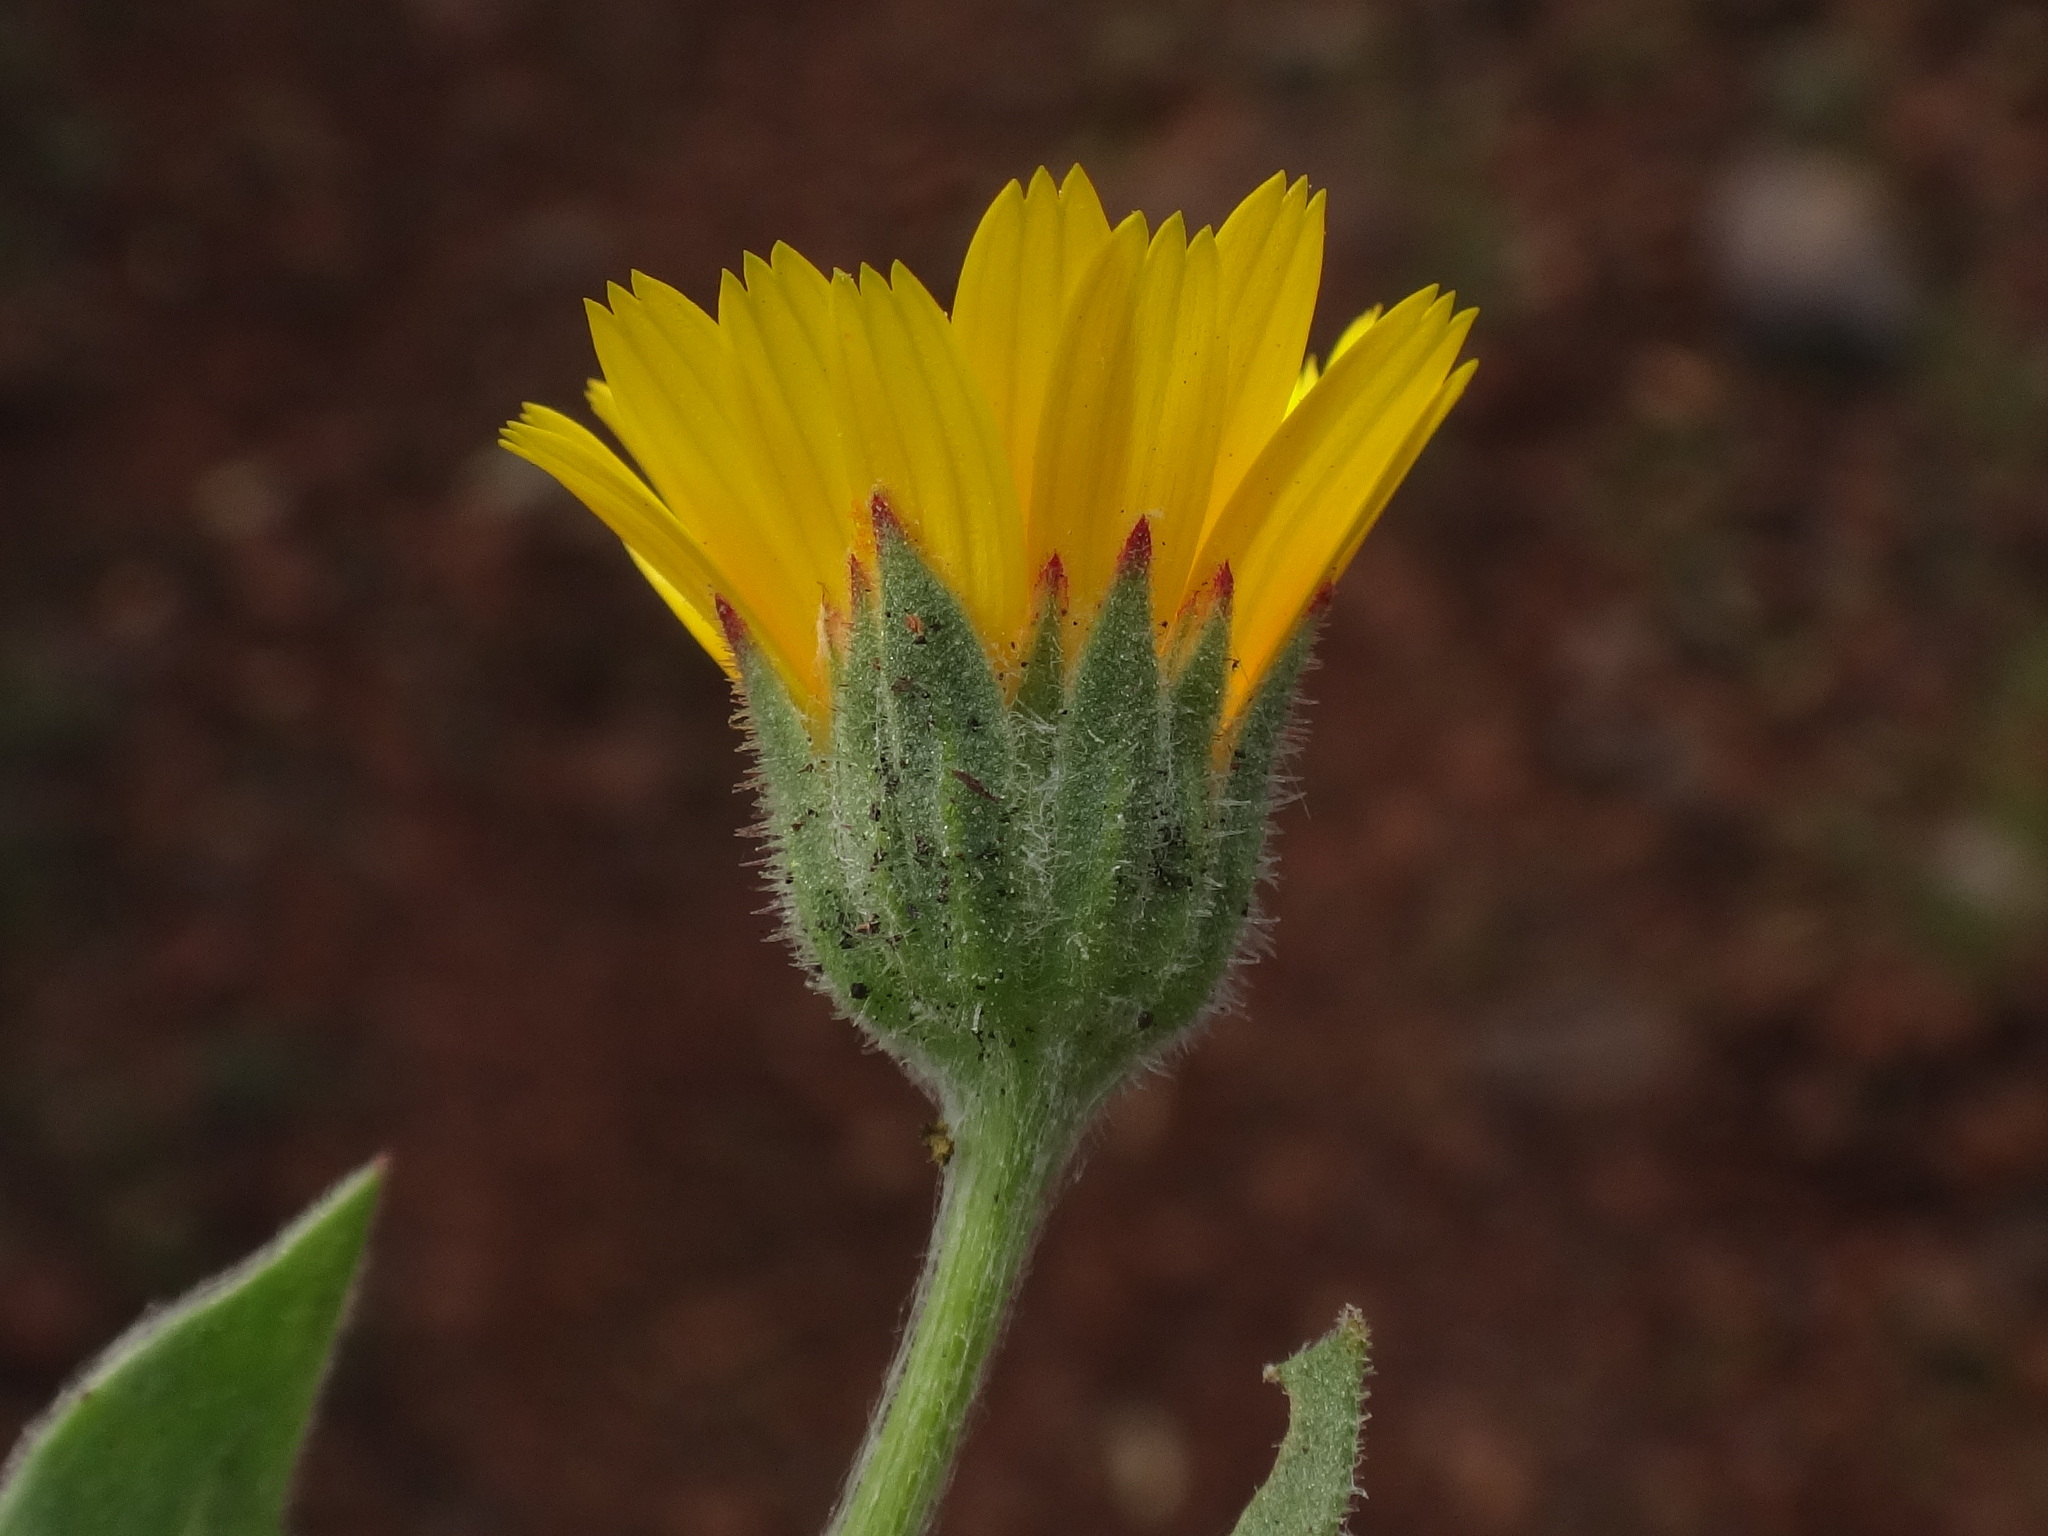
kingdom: Plantae
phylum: Tracheophyta
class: Magnoliopsida
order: Asterales
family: Asteraceae
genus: Calendula
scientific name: Calendula arvensis
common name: Field marigold
